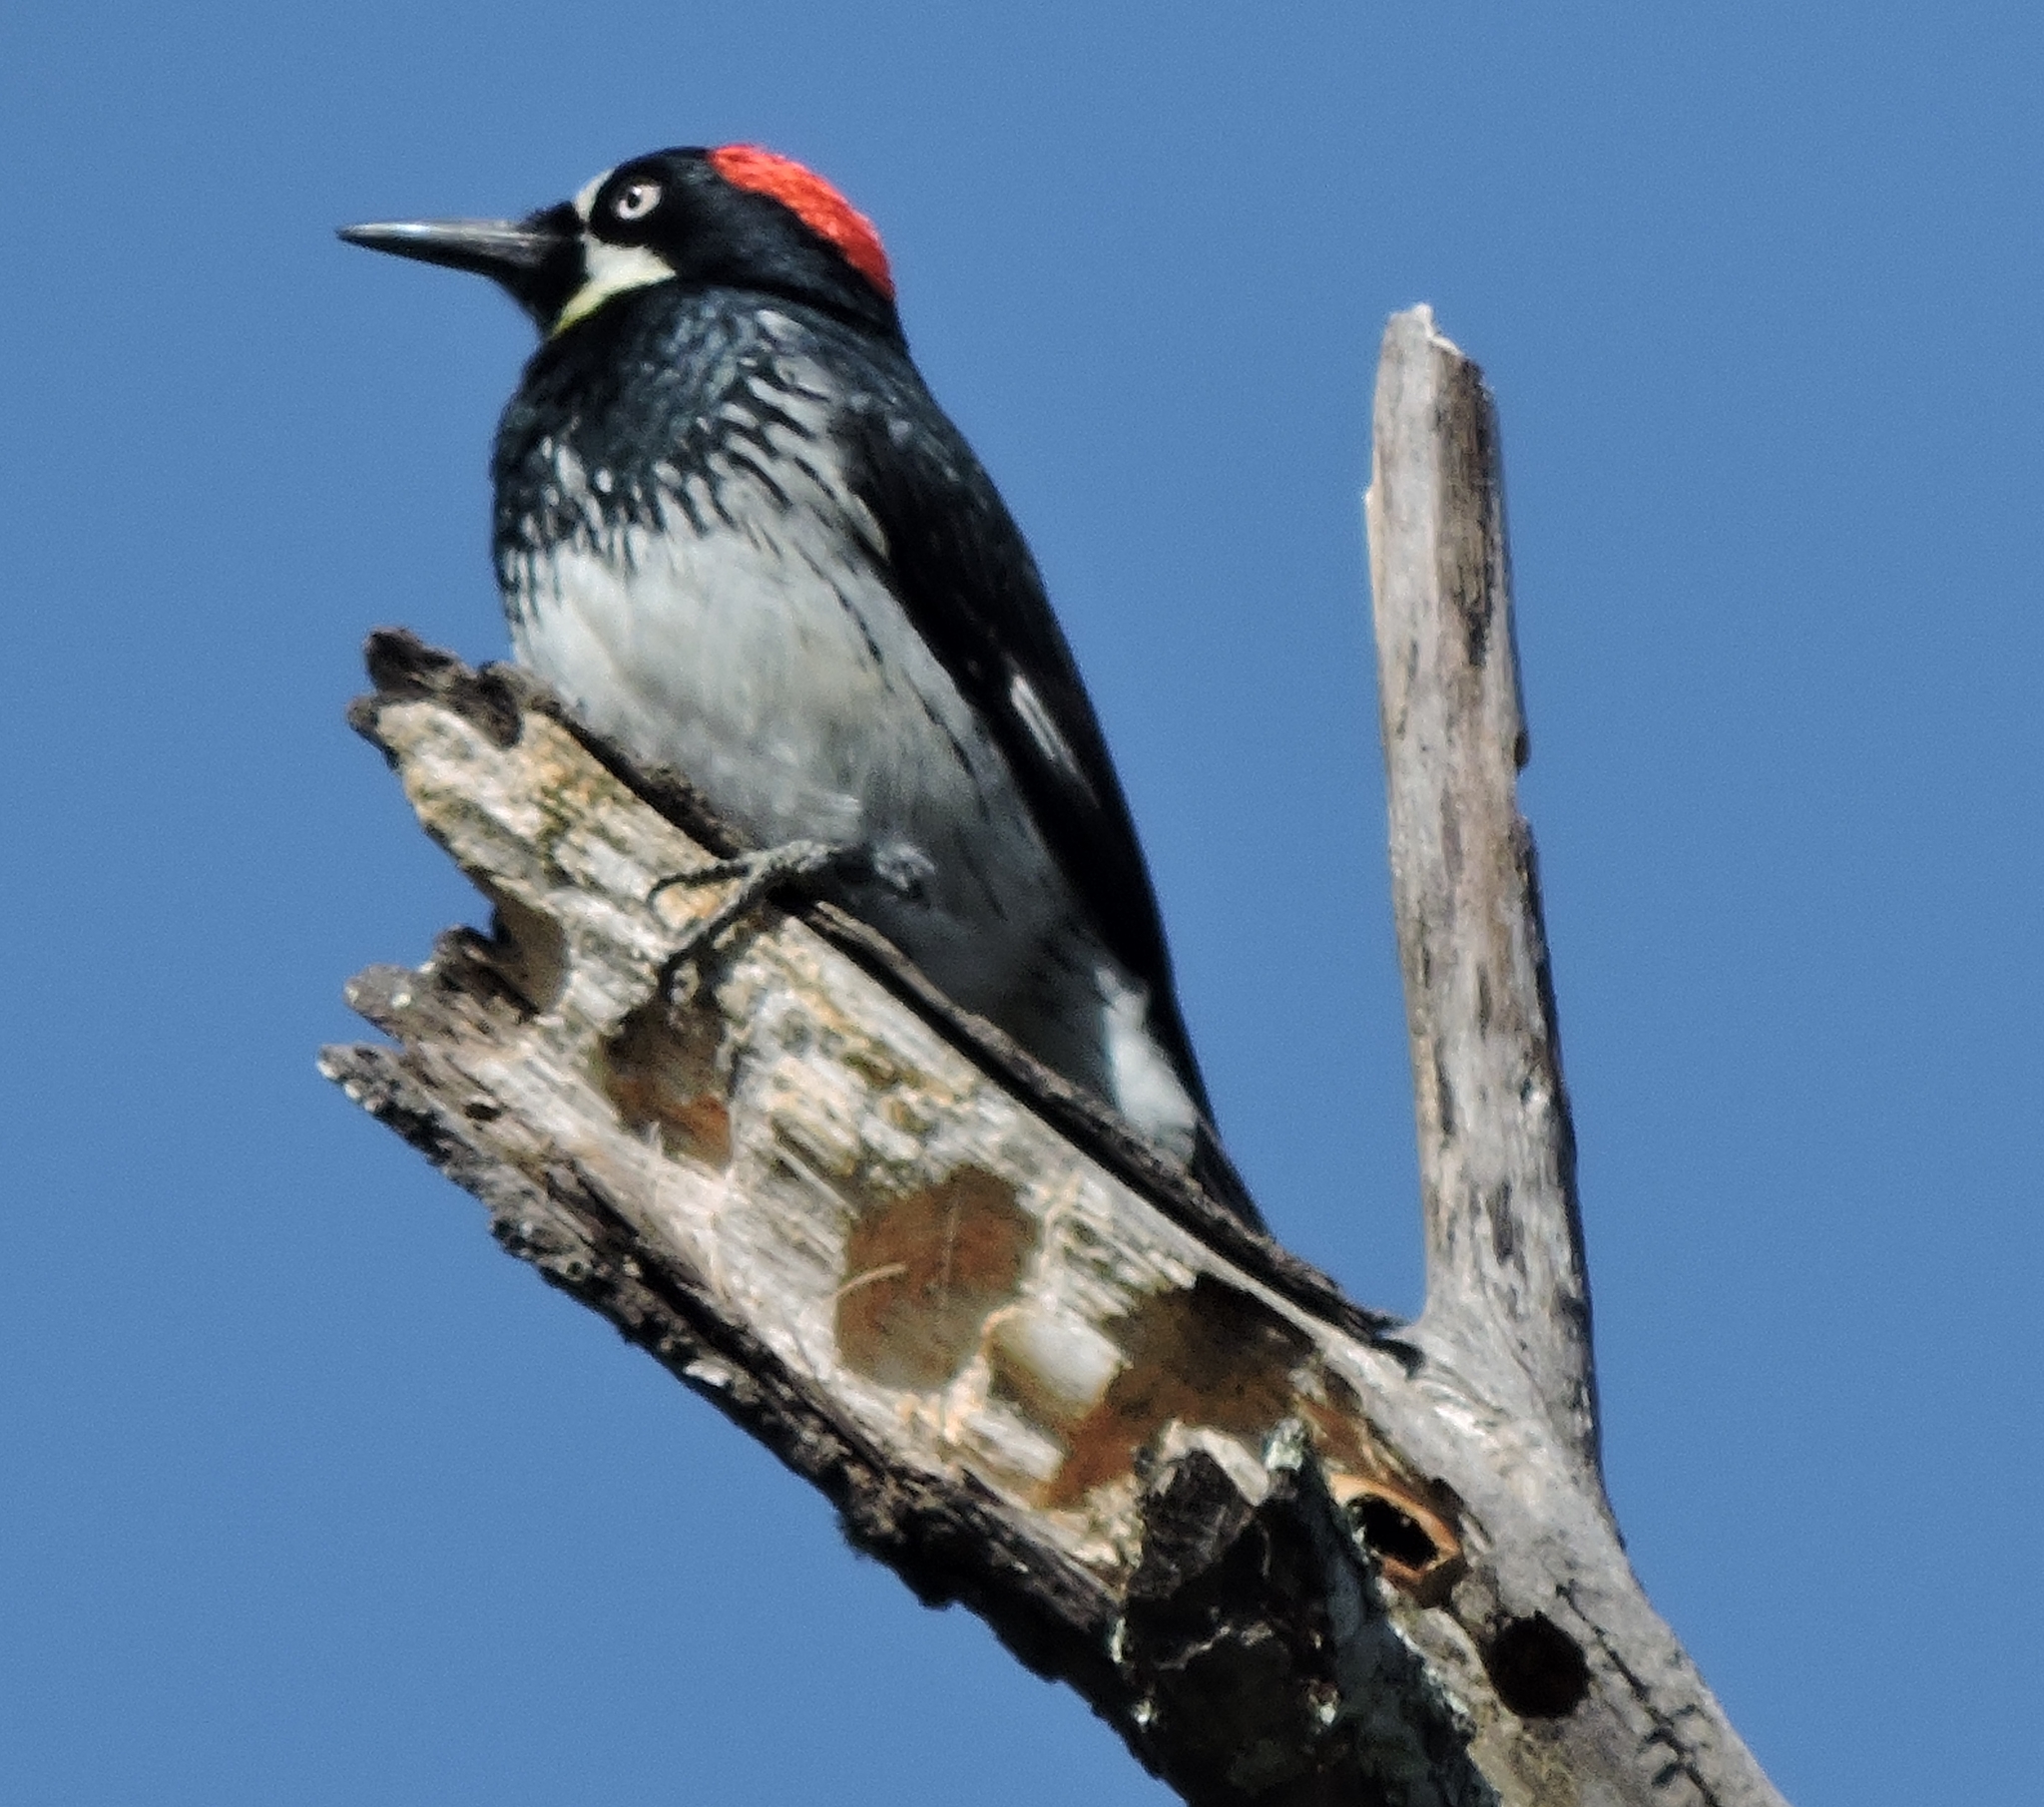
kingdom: Animalia
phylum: Chordata
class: Aves
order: Piciformes
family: Picidae
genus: Melanerpes
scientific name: Melanerpes formicivorus
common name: Acorn woodpecker
